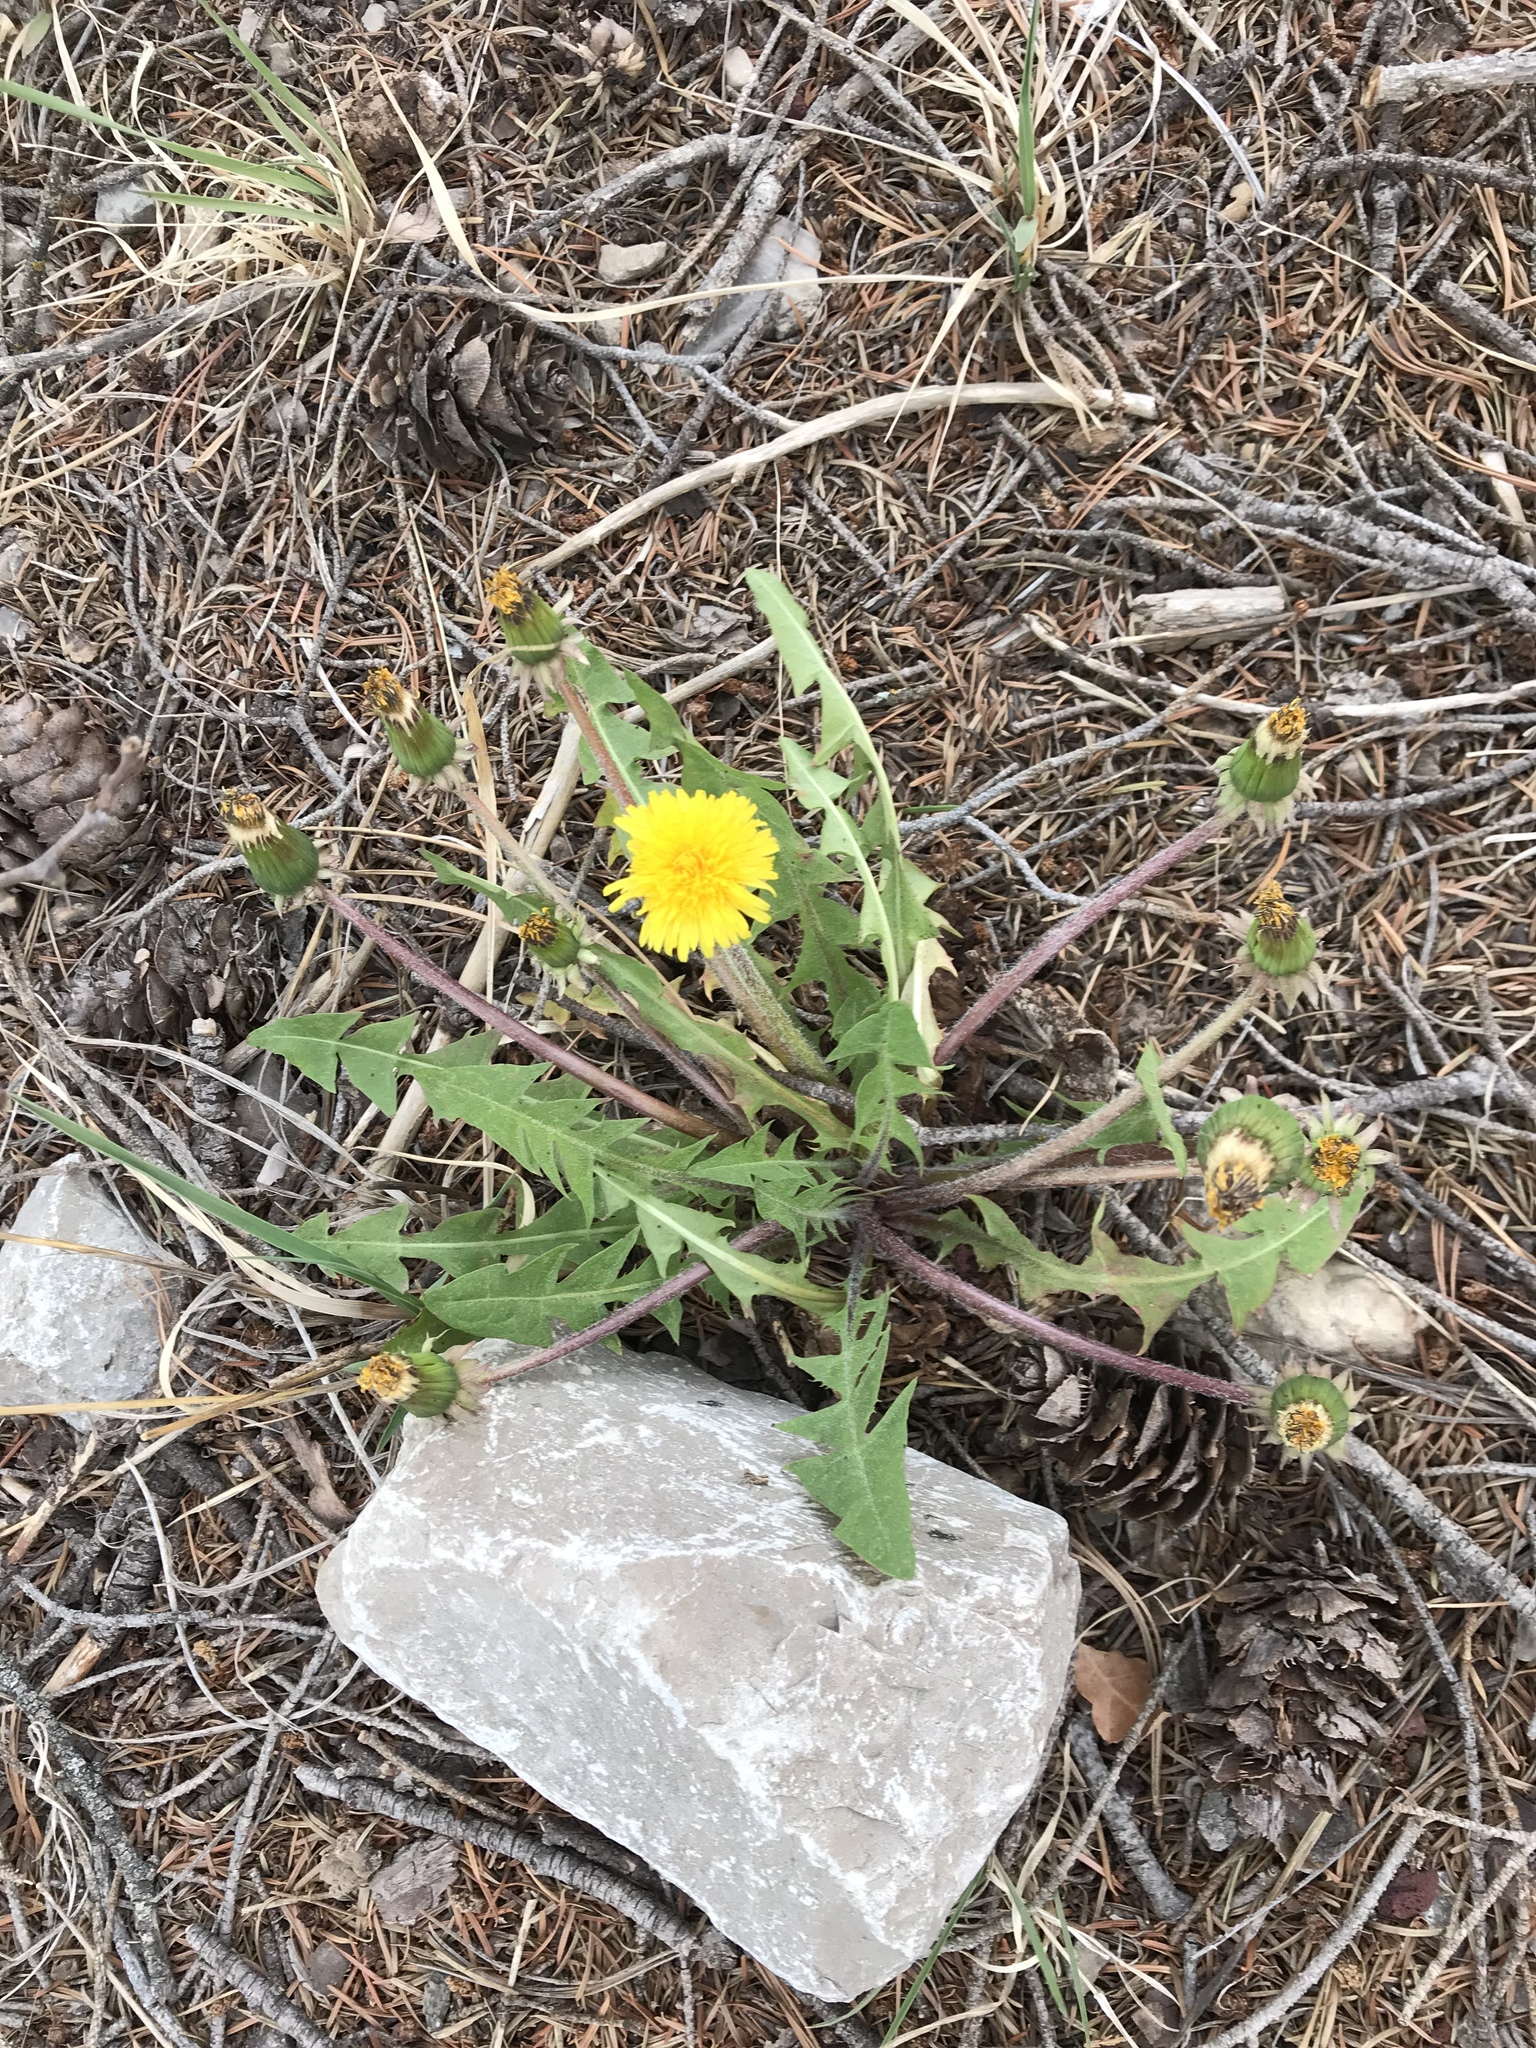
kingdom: Plantae
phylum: Tracheophyta
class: Magnoliopsida
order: Asterales
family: Asteraceae
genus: Taraxacum
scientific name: Taraxacum officinale
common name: Common dandelion
